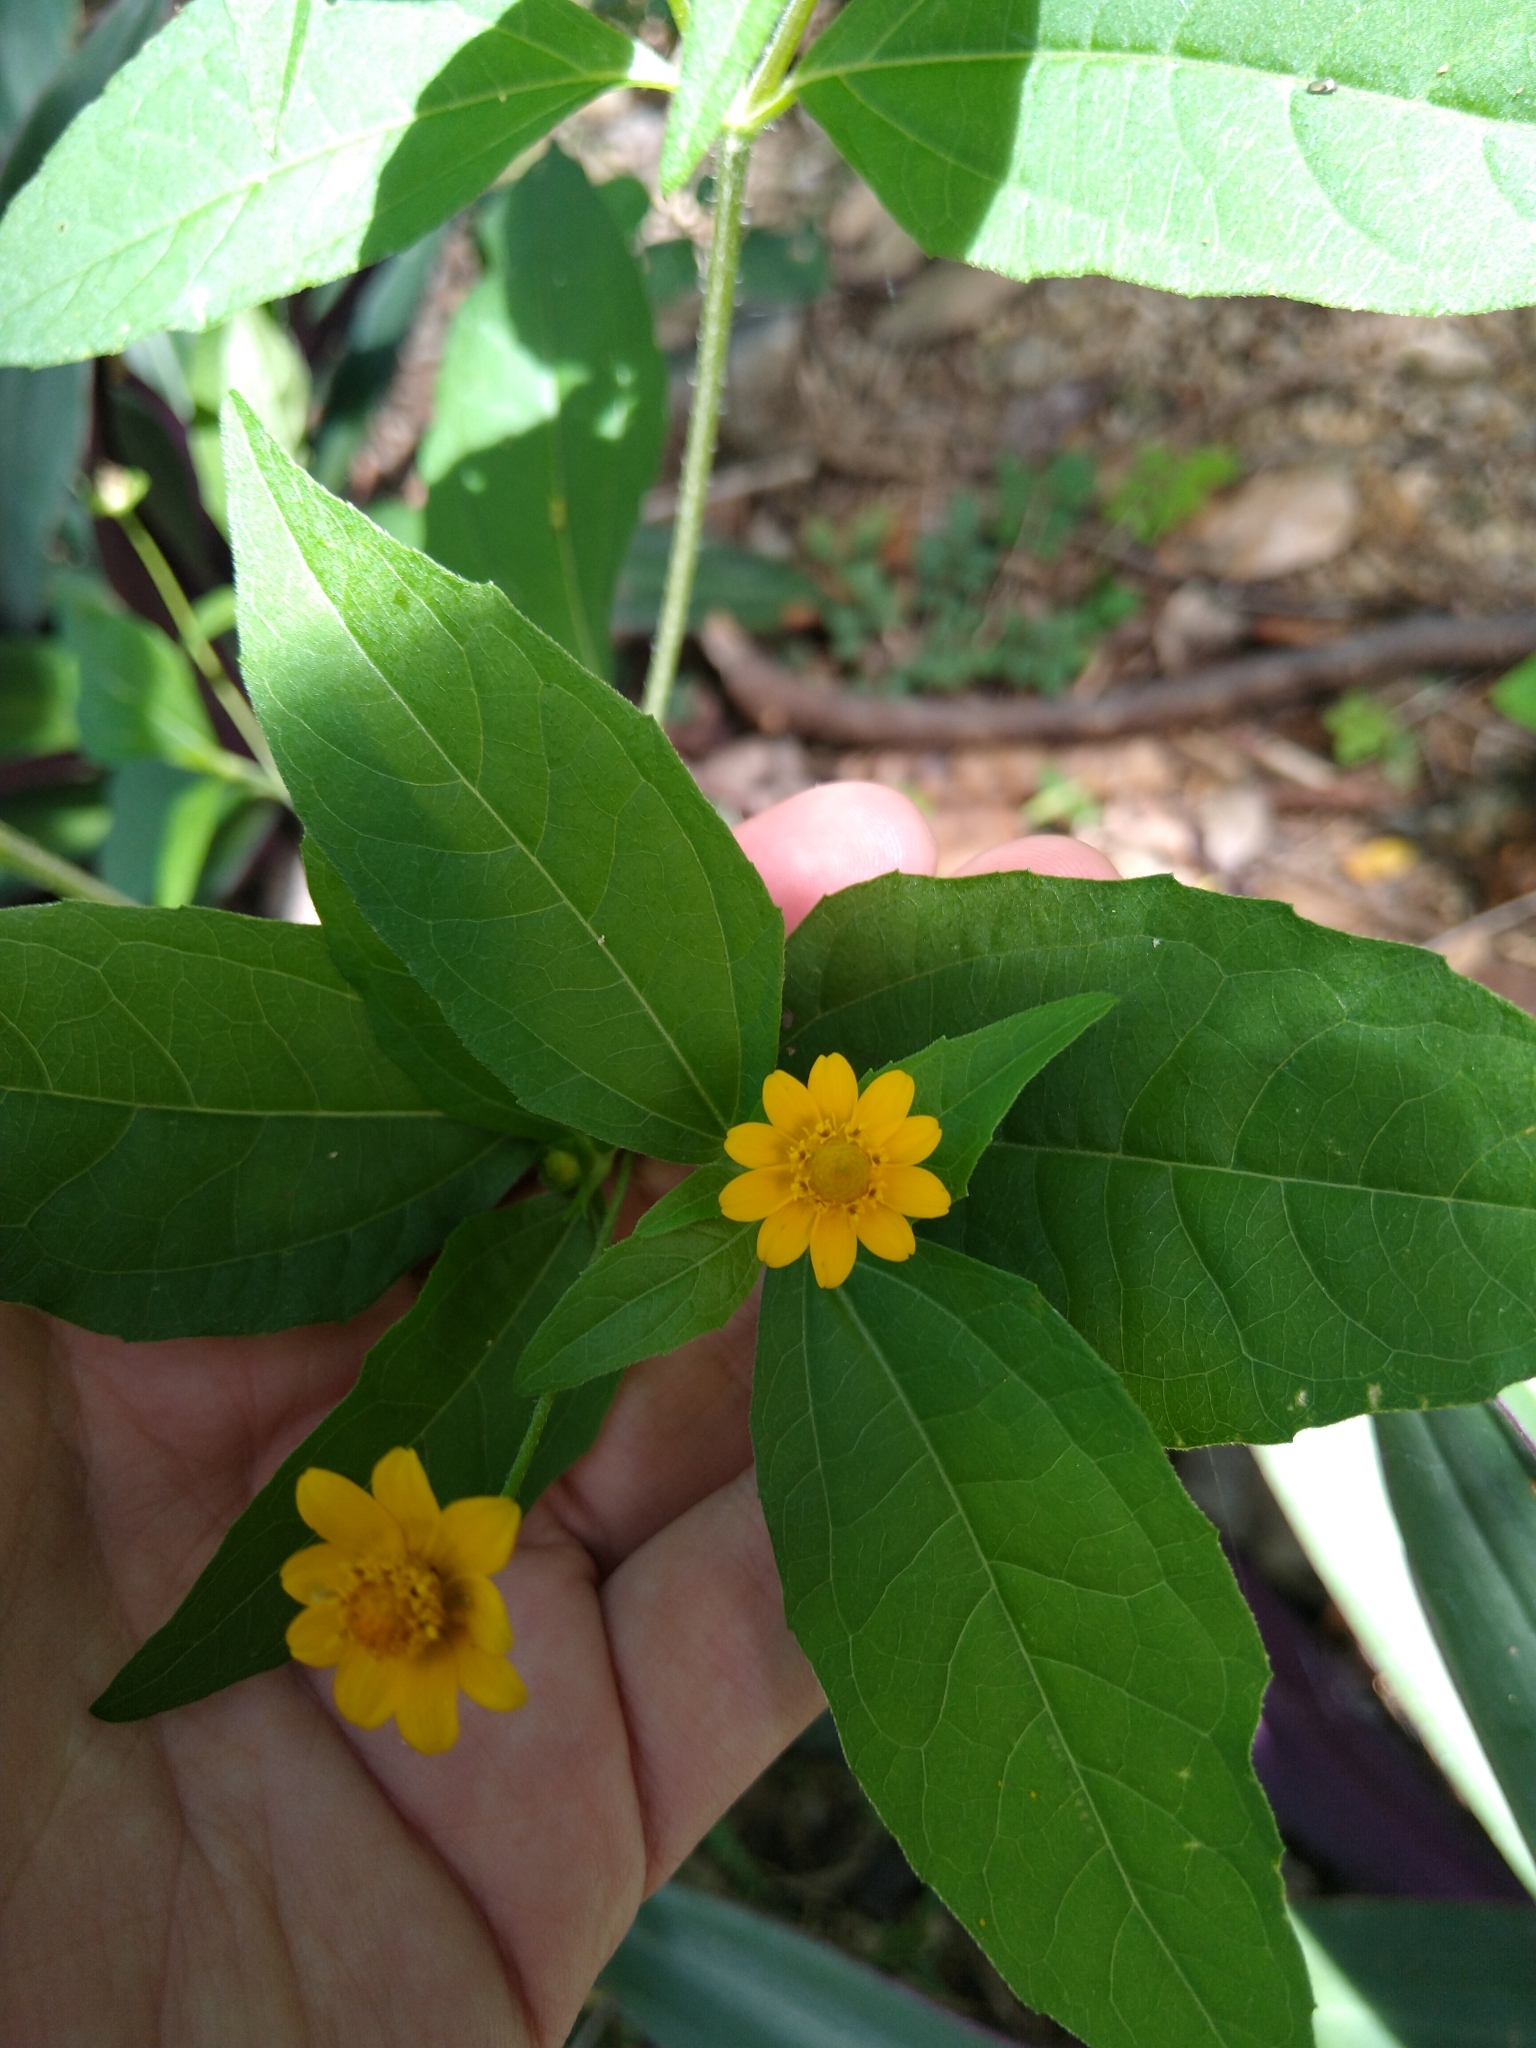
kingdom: Plantae
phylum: Tracheophyta
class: Magnoliopsida
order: Asterales
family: Asteraceae
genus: Melampodium
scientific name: Melampodium divaricatum
